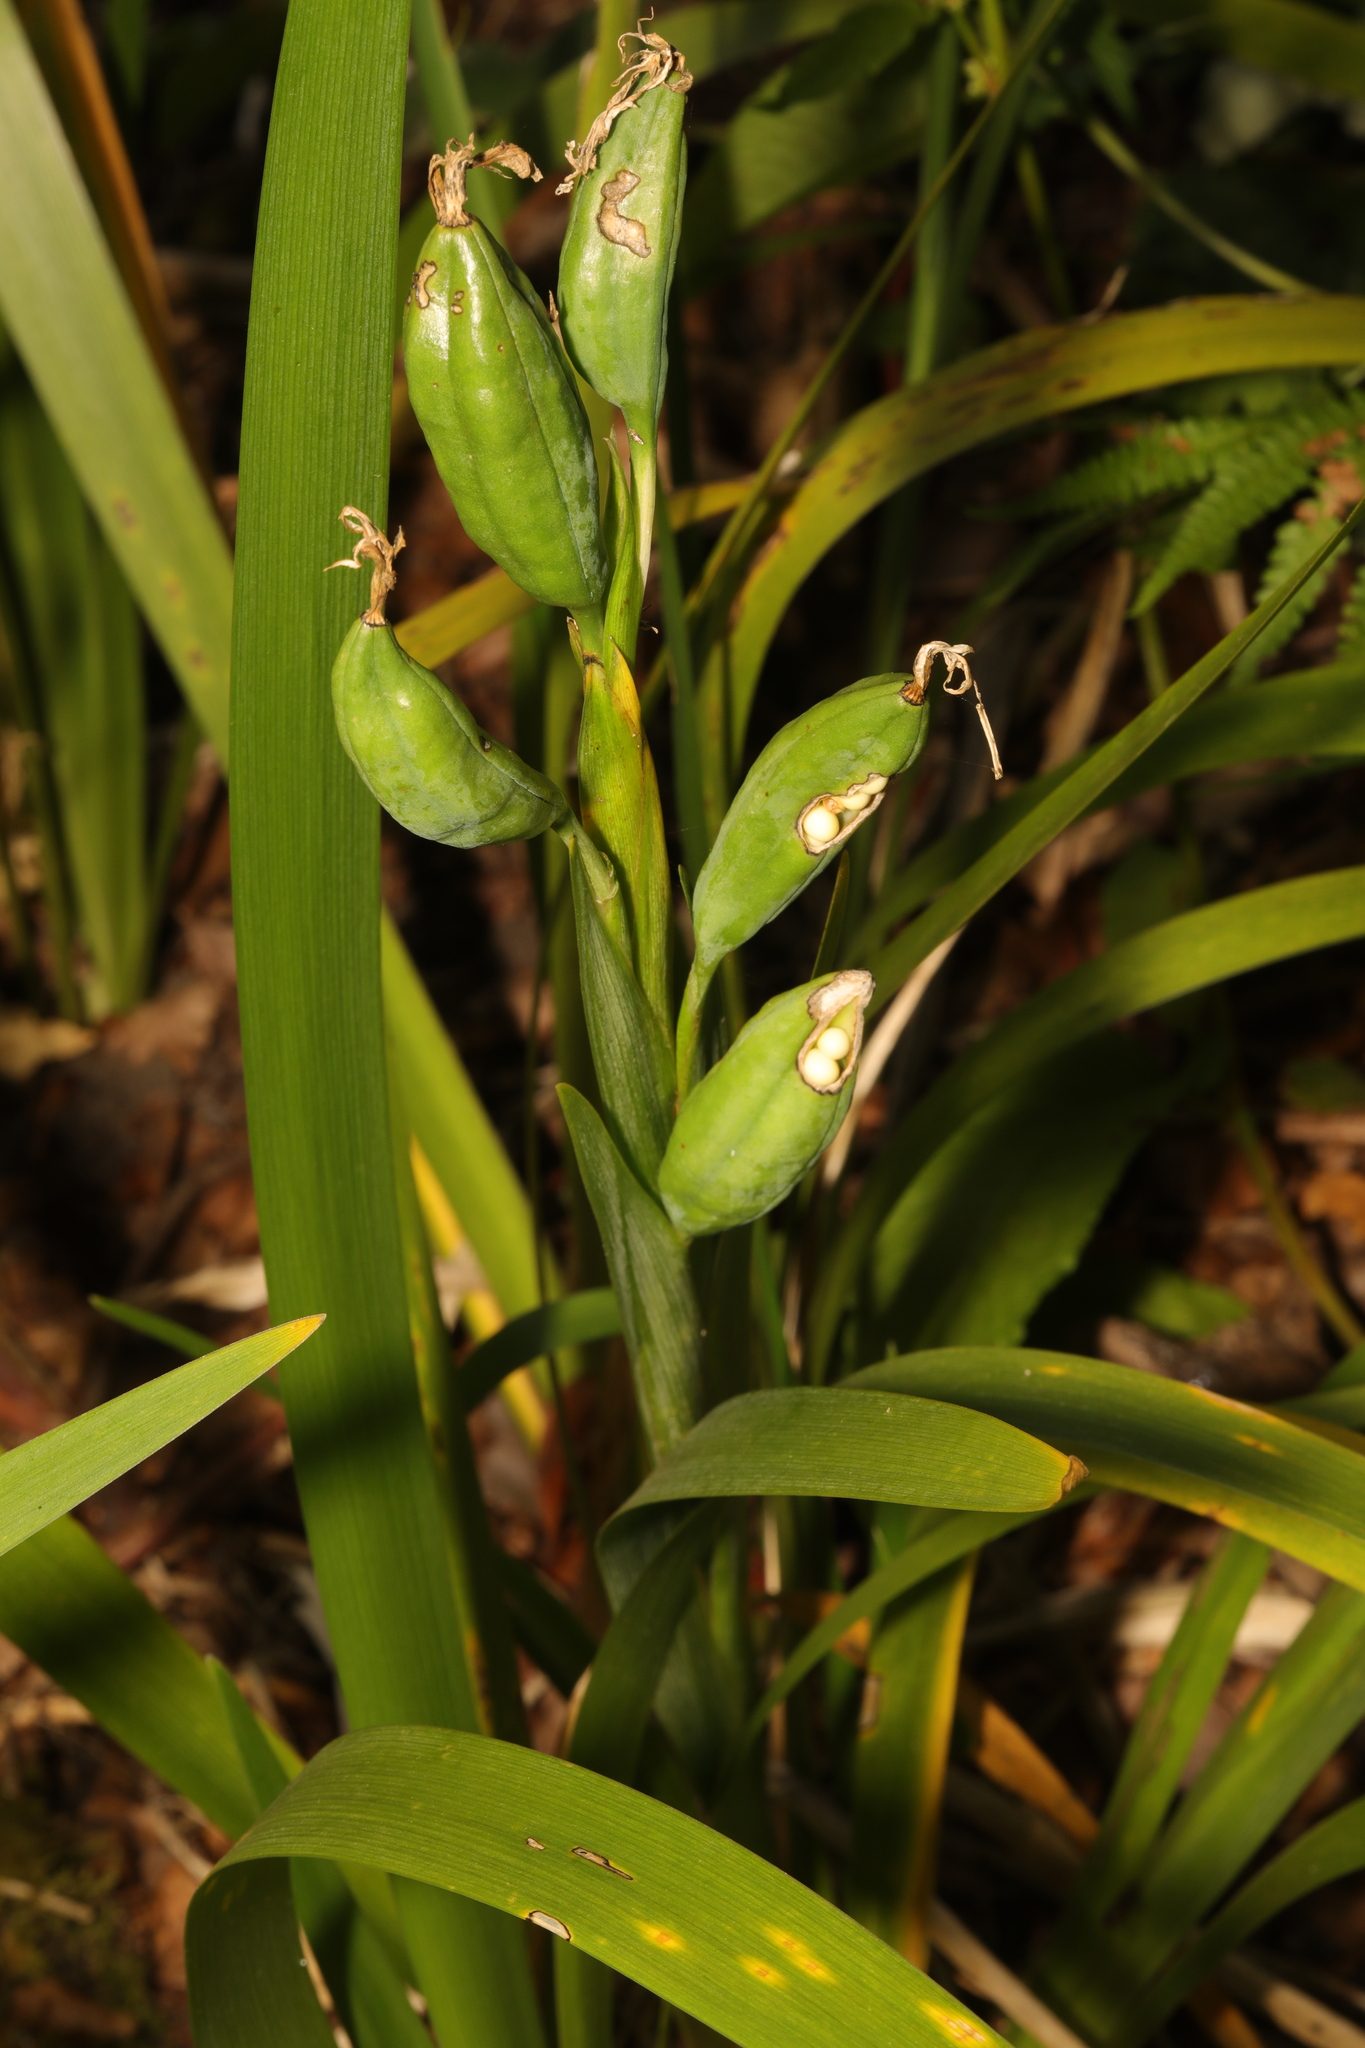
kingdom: Plantae
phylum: Tracheophyta
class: Liliopsida
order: Asparagales
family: Iridaceae
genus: Iris
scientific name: Iris foetidissima
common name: Stinking iris
